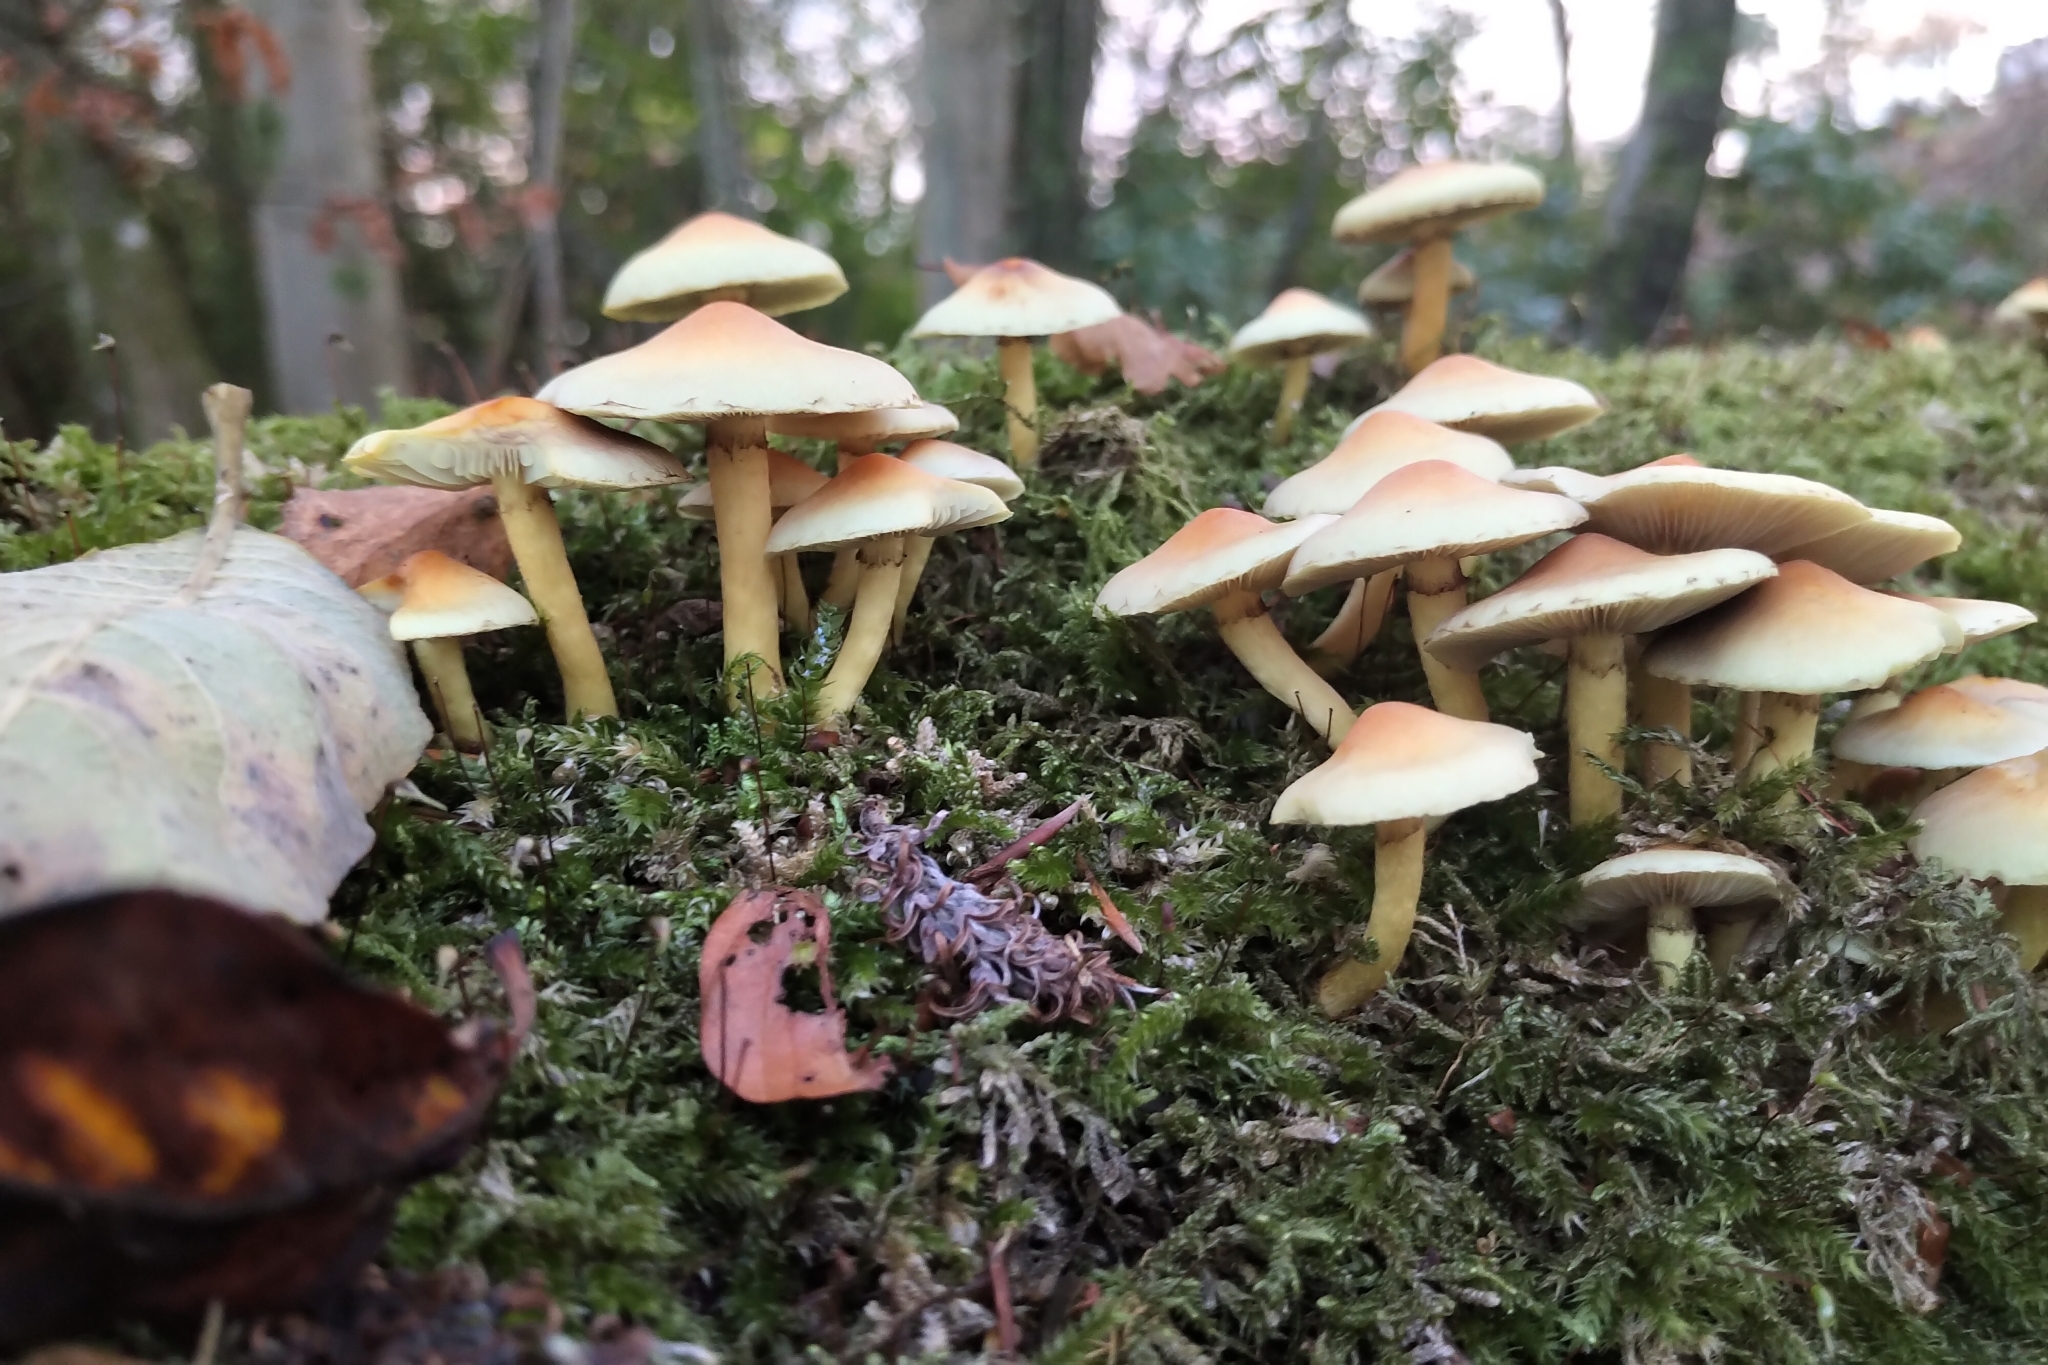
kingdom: Fungi
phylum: Basidiomycota
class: Agaricomycetes
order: Agaricales
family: Strophariaceae
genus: Hypholoma
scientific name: Hypholoma fasciculare
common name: Sulphur tuft
